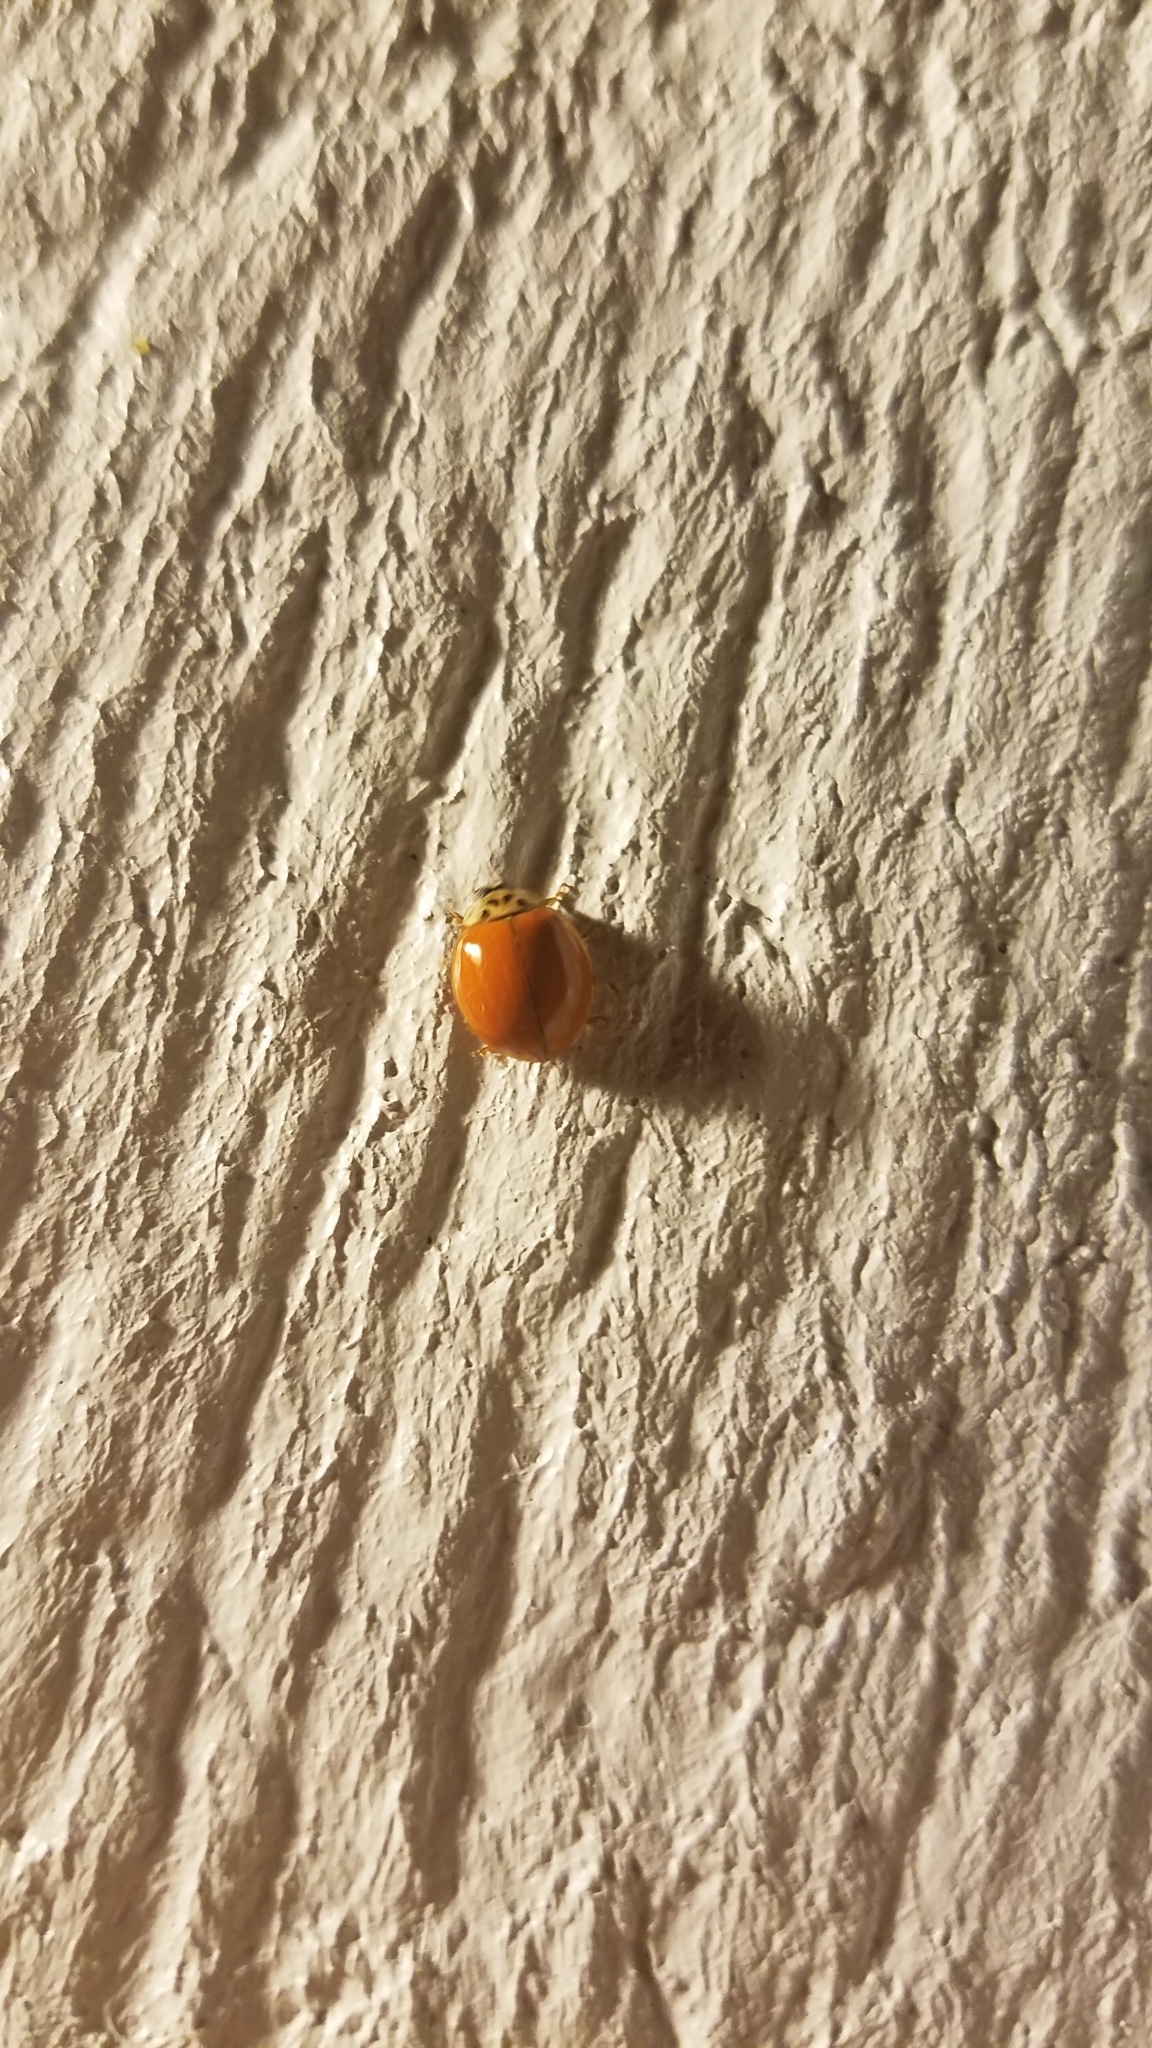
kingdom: Animalia
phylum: Arthropoda
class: Insecta
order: Coleoptera
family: Coccinellidae
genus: Harmonia
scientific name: Harmonia axyridis
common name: Harlequin ladybird
